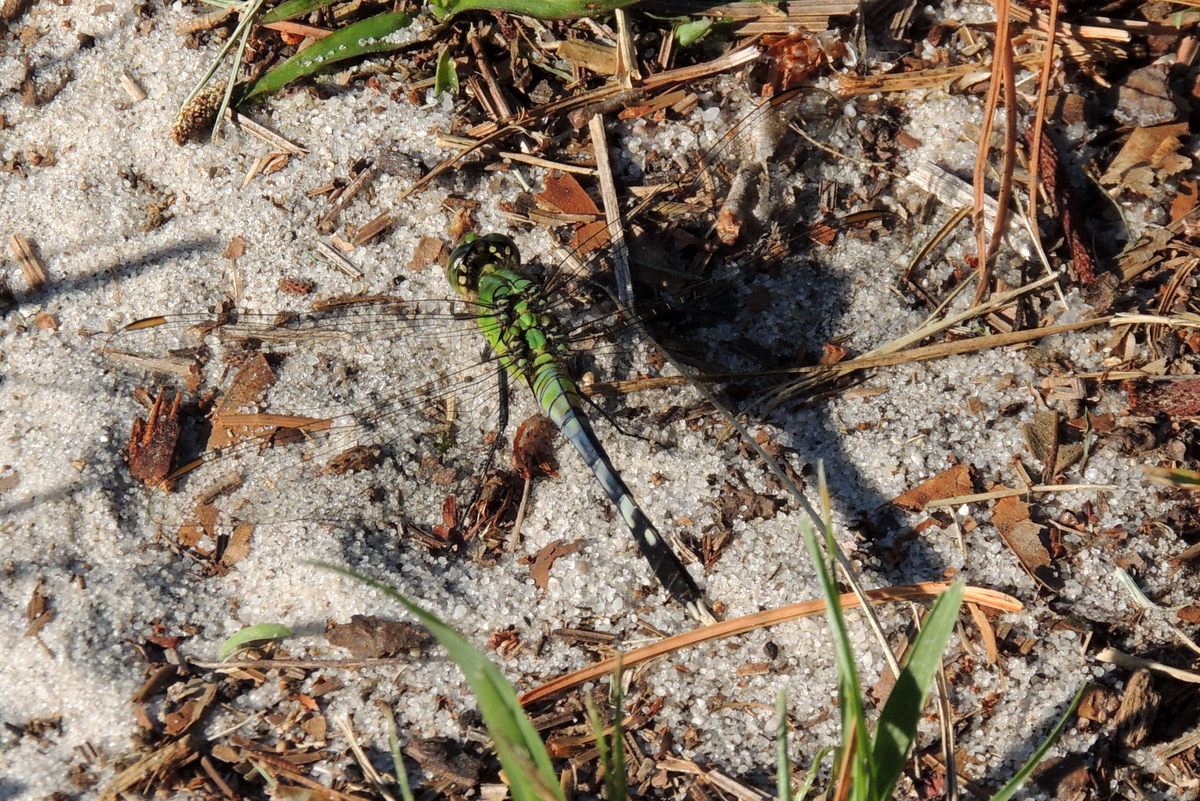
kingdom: Animalia
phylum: Arthropoda
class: Insecta
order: Odonata
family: Libellulidae
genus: Erythemis
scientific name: Erythemis simplicicollis
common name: Eastern pondhawk
